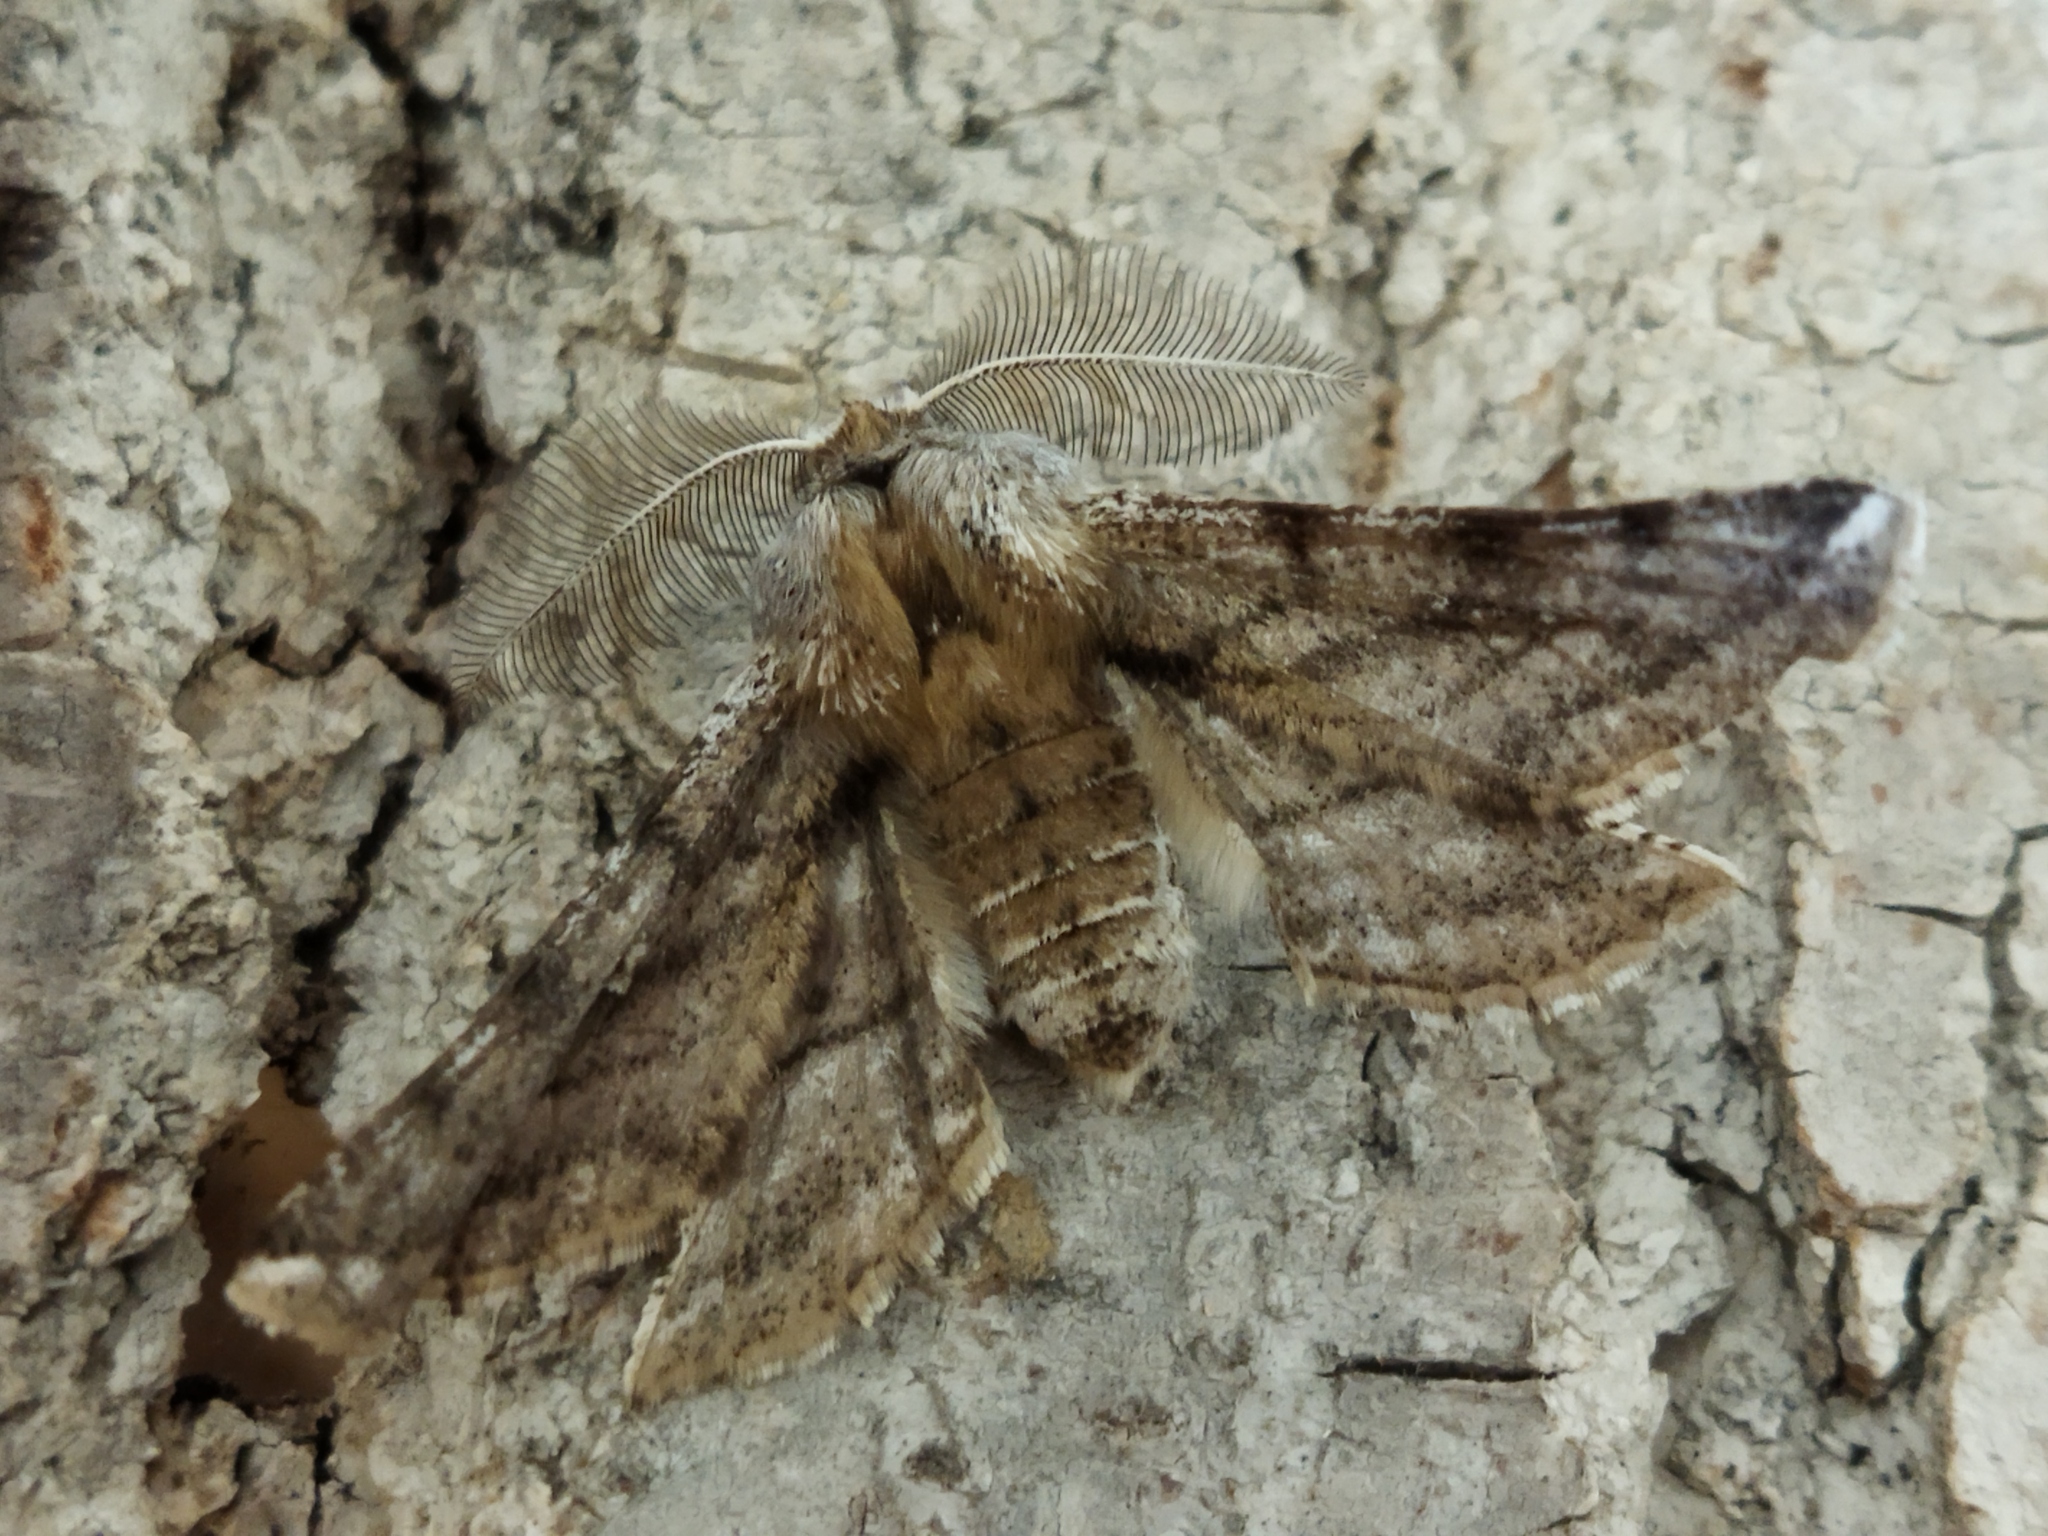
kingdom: Animalia
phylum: Arthropoda
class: Insecta
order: Lepidoptera
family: Geometridae
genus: Apochima
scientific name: Apochima flabellaria
